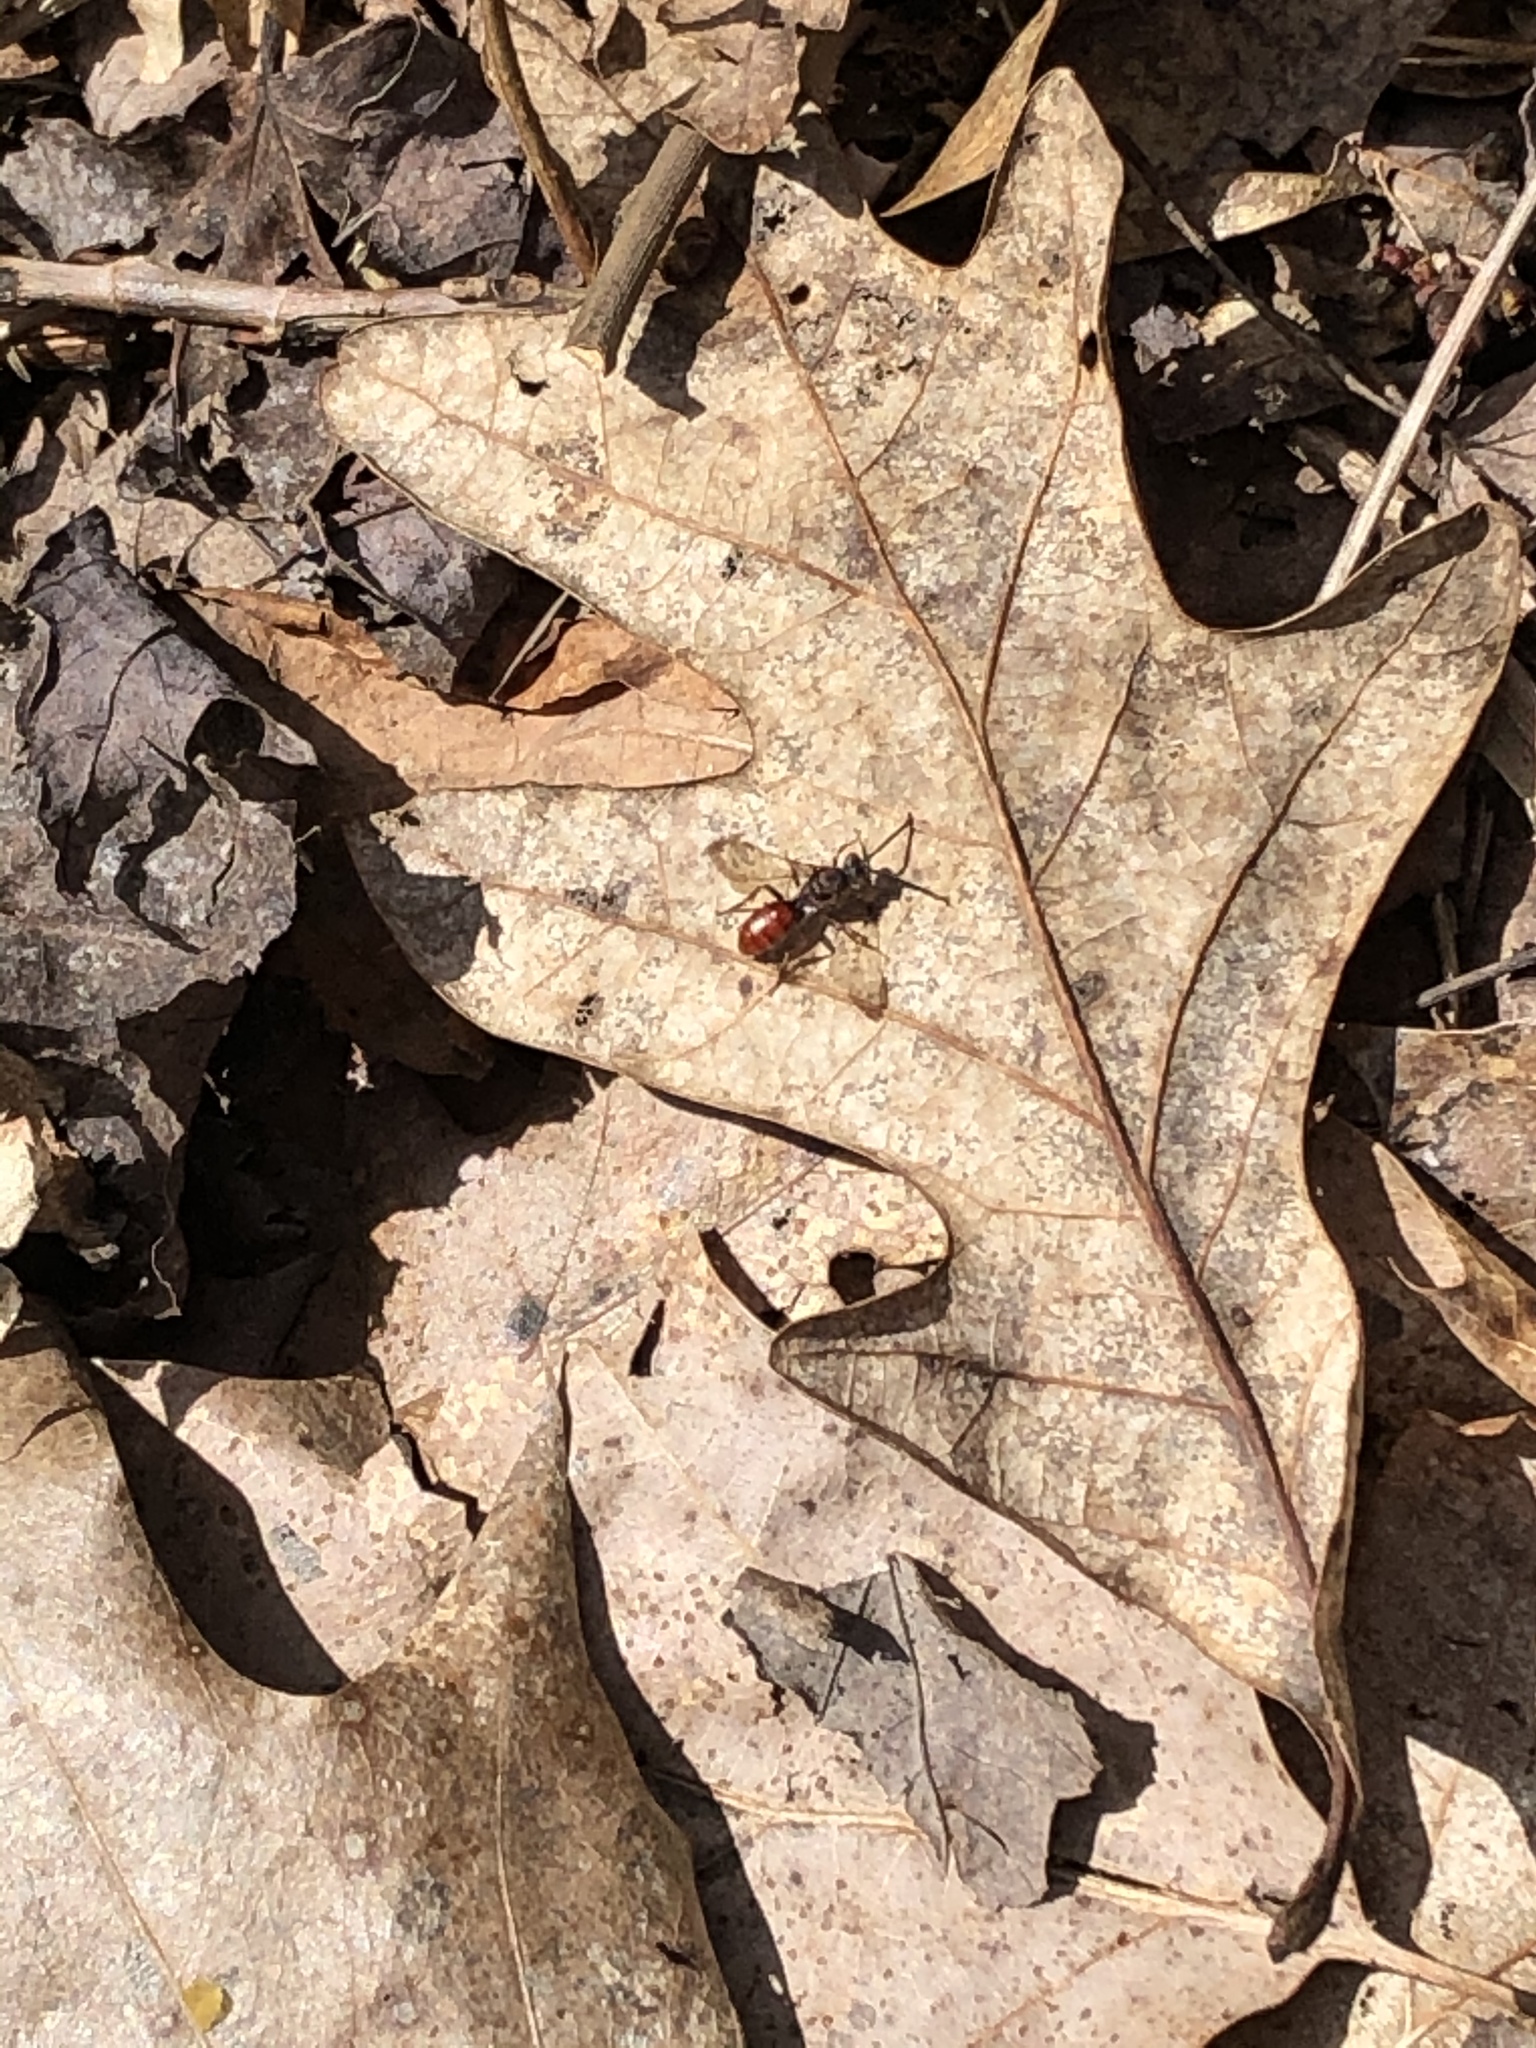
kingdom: Animalia
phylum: Arthropoda
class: Insecta
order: Hymenoptera
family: Apidae
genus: Nomada
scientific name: Nomada
